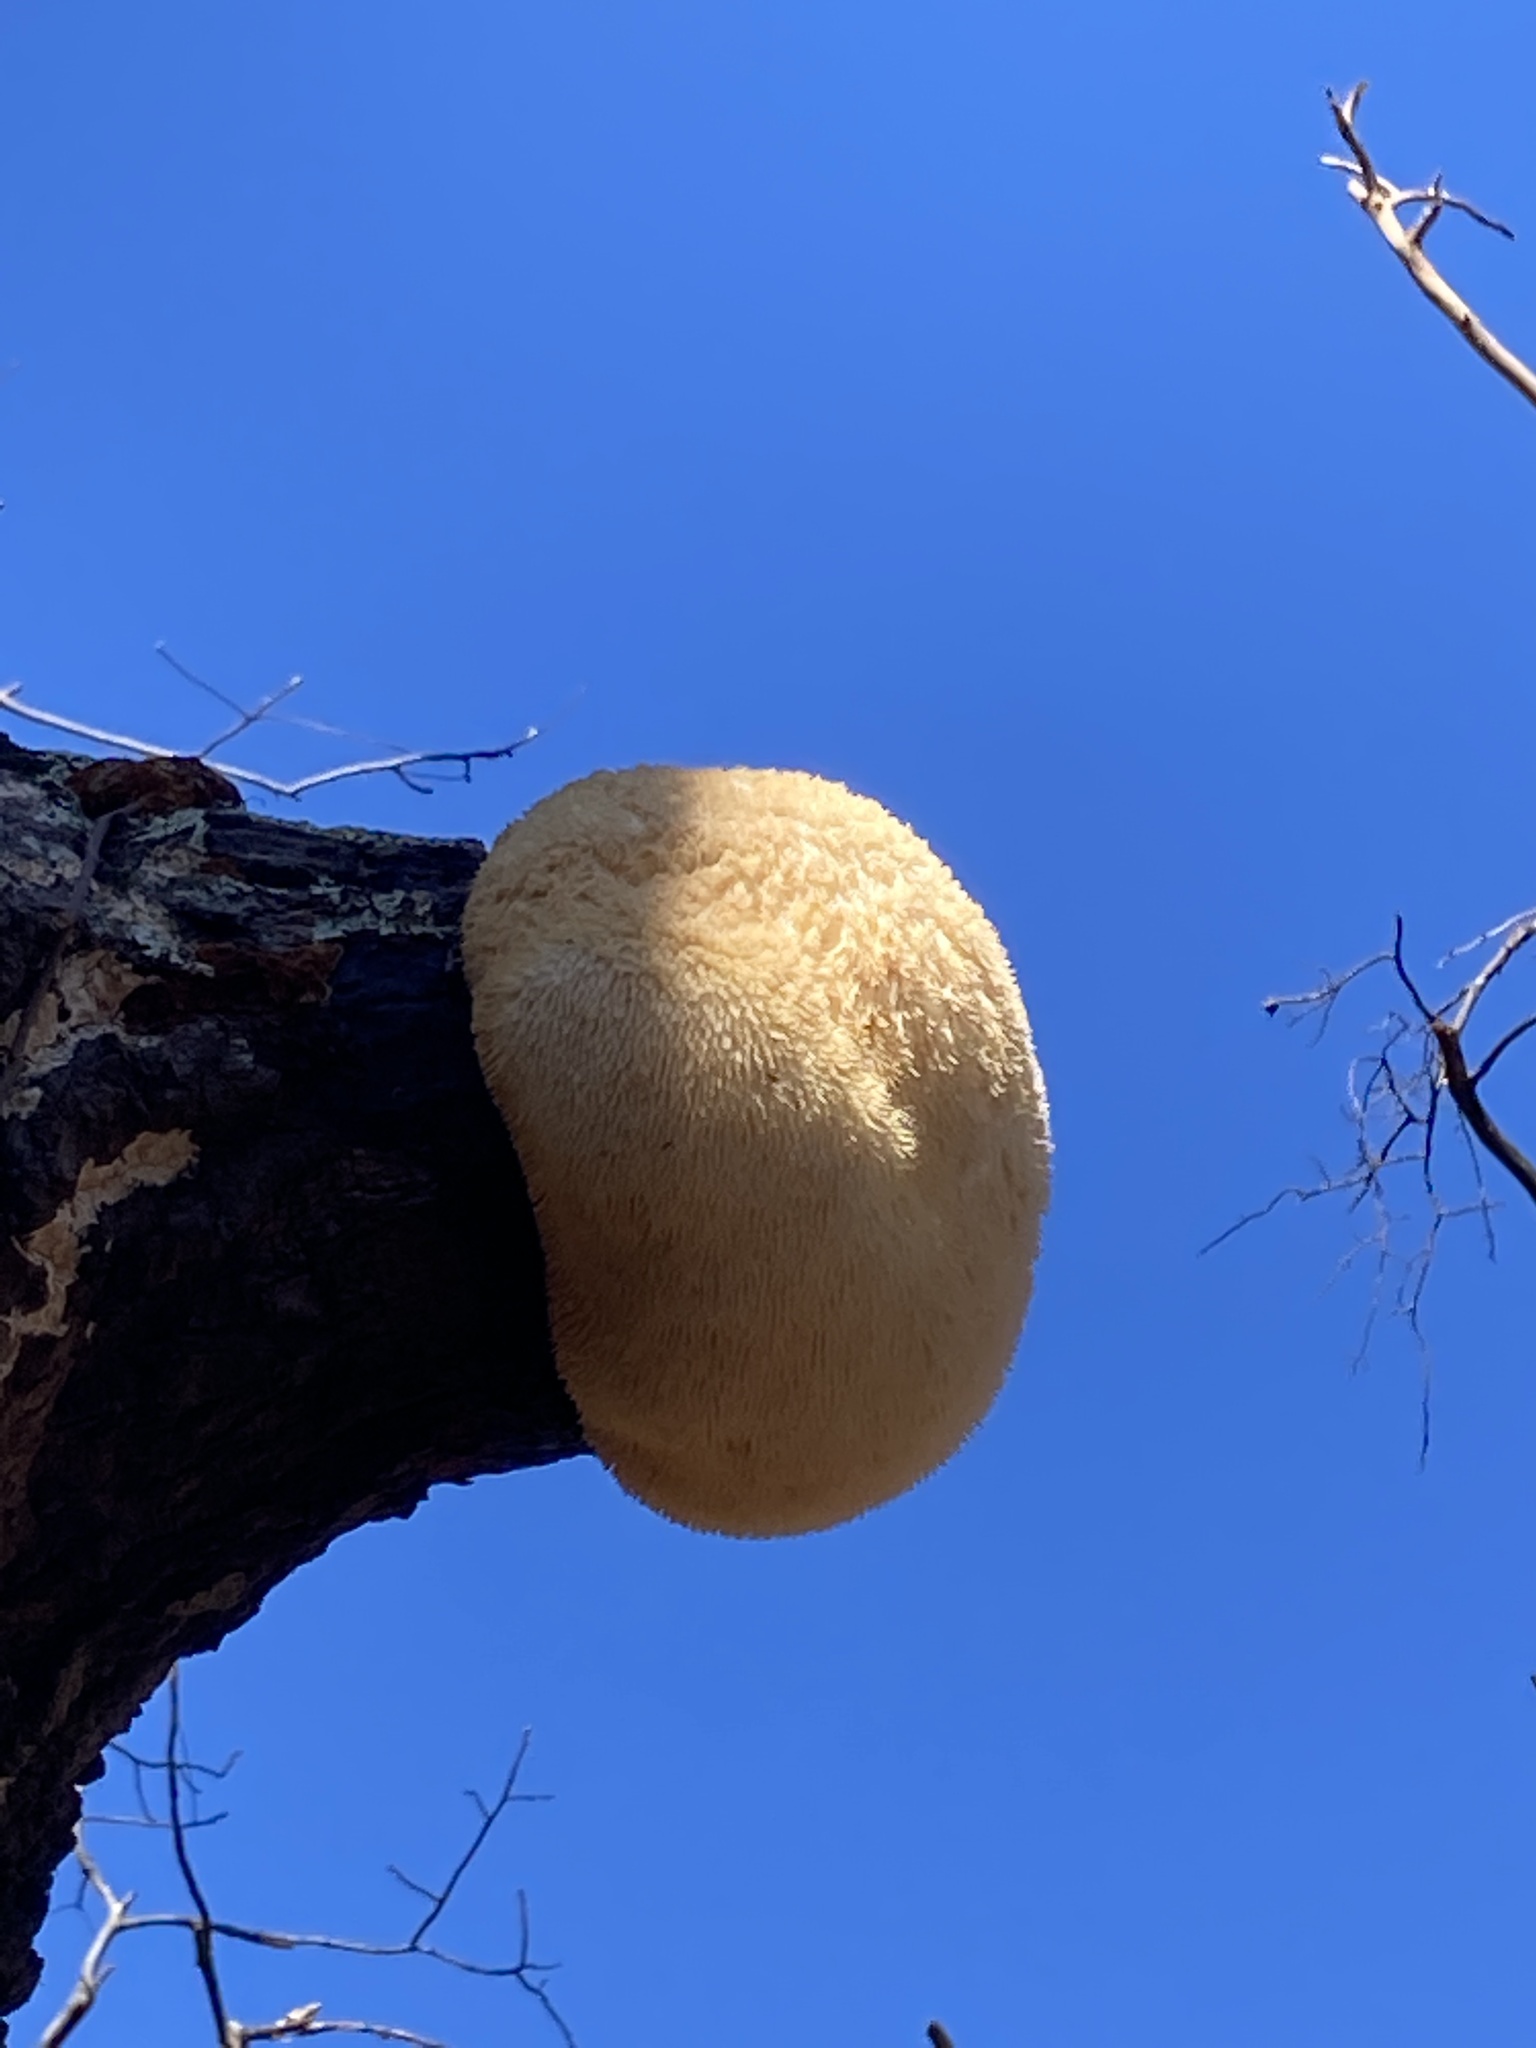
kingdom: Fungi
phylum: Basidiomycota
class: Agaricomycetes
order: Russulales
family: Hericiaceae
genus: Hericium
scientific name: Hericium erinaceus
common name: Bearded tooth
